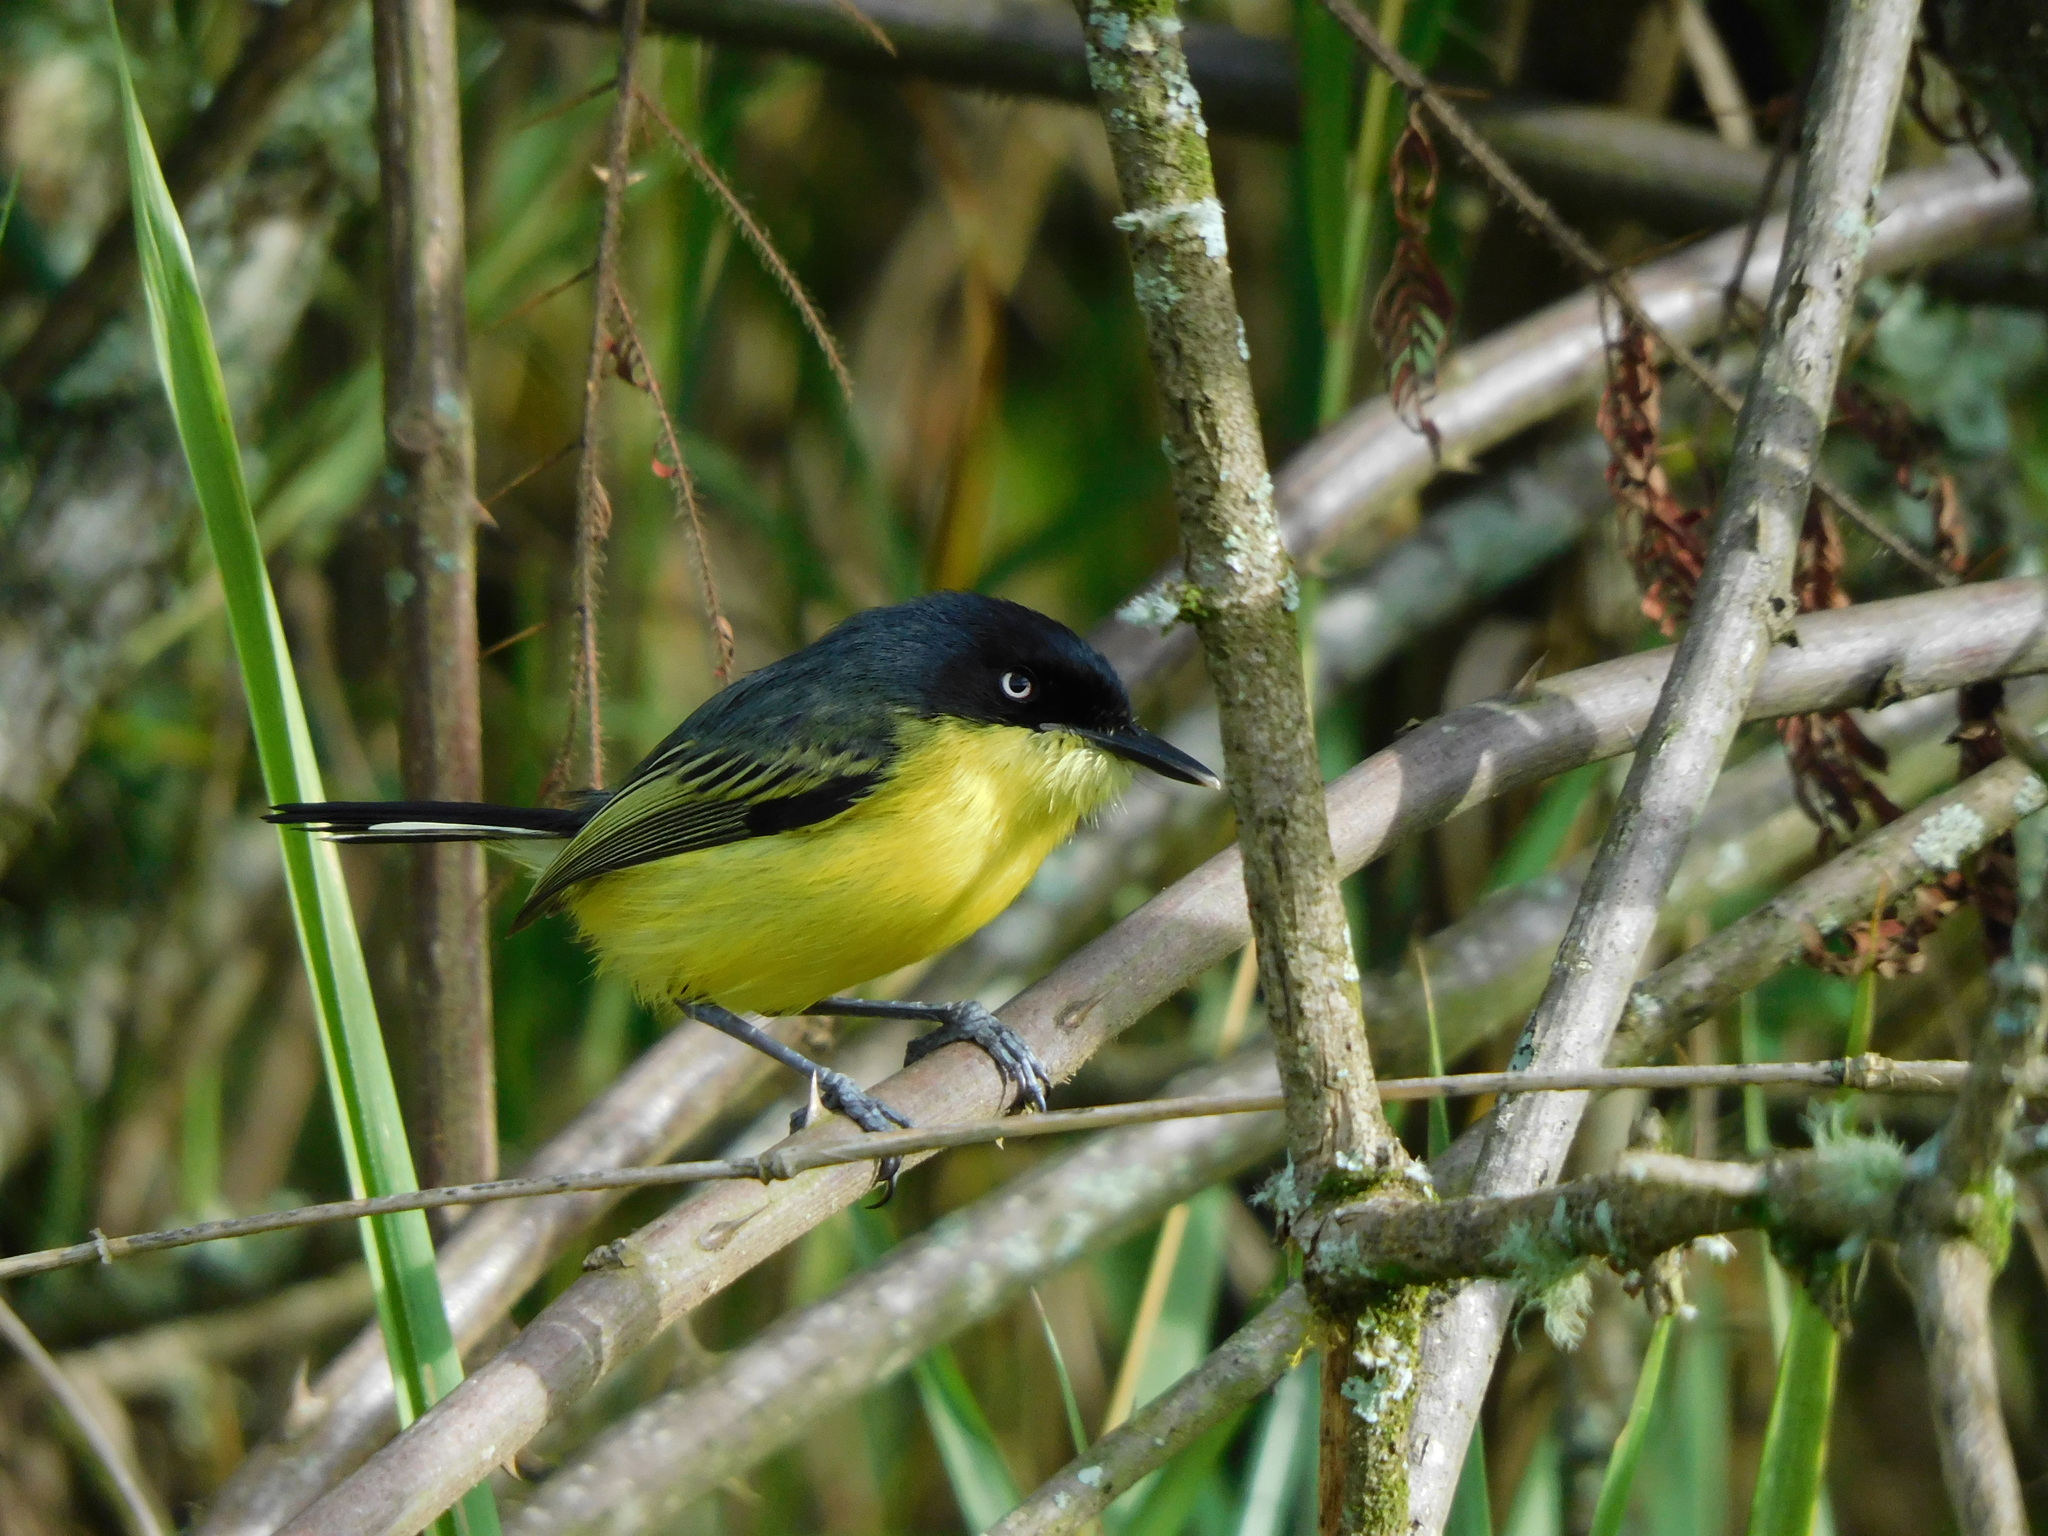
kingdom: Animalia
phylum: Chordata
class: Aves
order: Passeriformes
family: Tyrannidae
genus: Todirostrum
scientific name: Todirostrum cinereum
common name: Common tody-flycatcher
